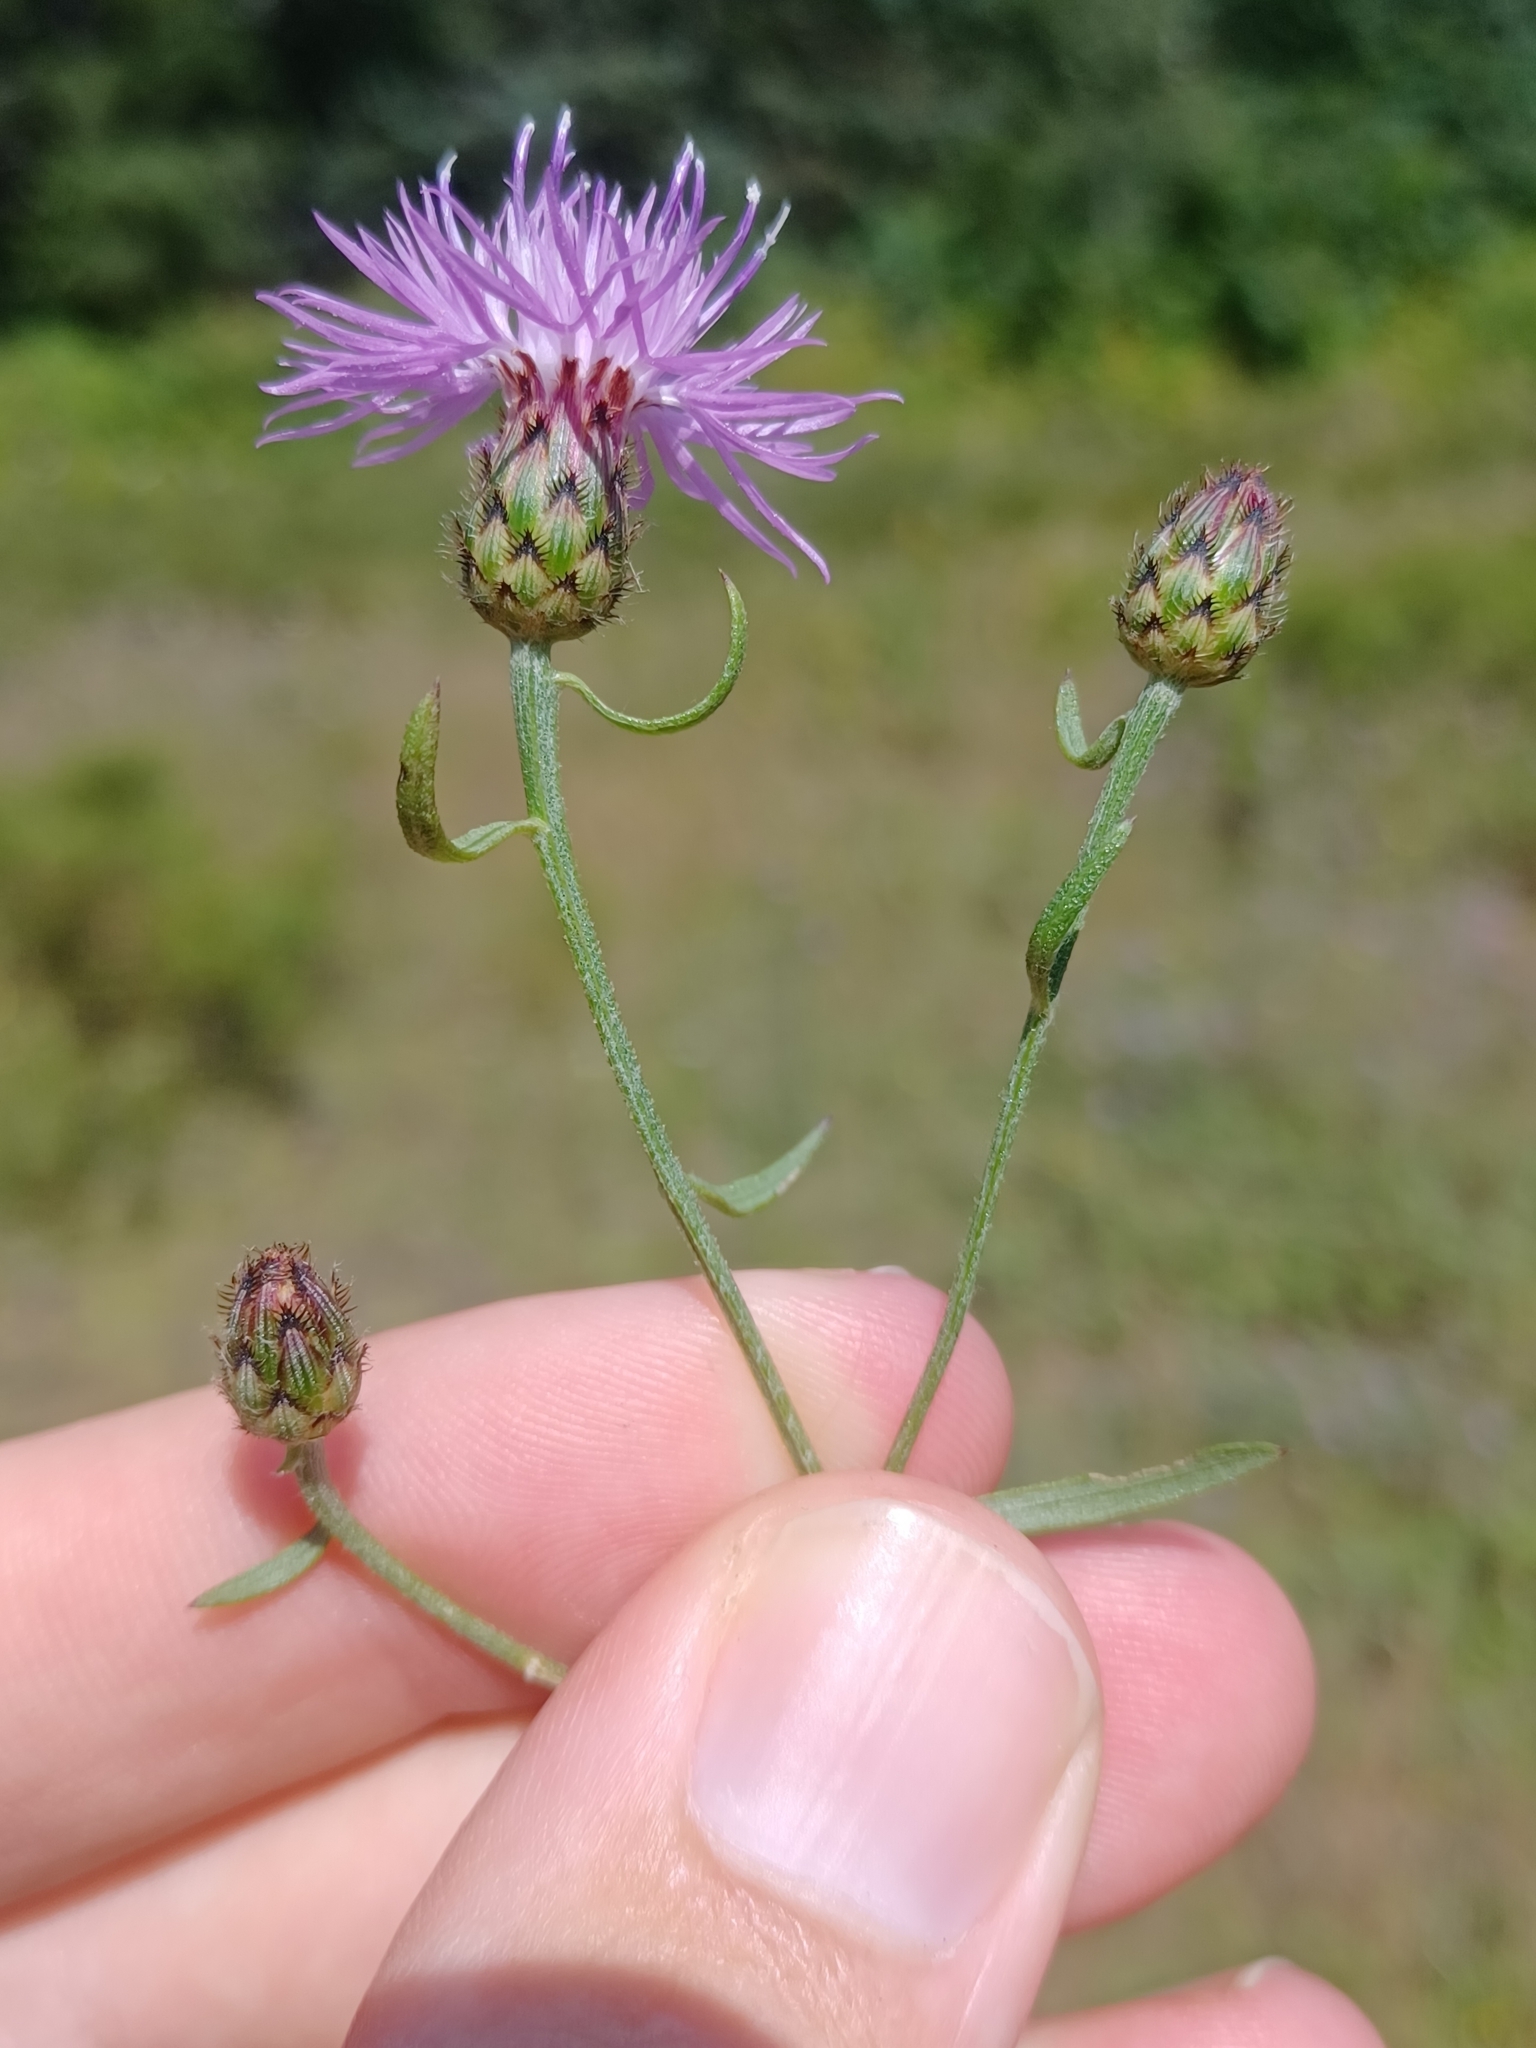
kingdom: Plantae
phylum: Tracheophyta
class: Magnoliopsida
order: Asterales
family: Asteraceae
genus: Centaurea
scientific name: Centaurea stoebe
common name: Spotted knapweed
